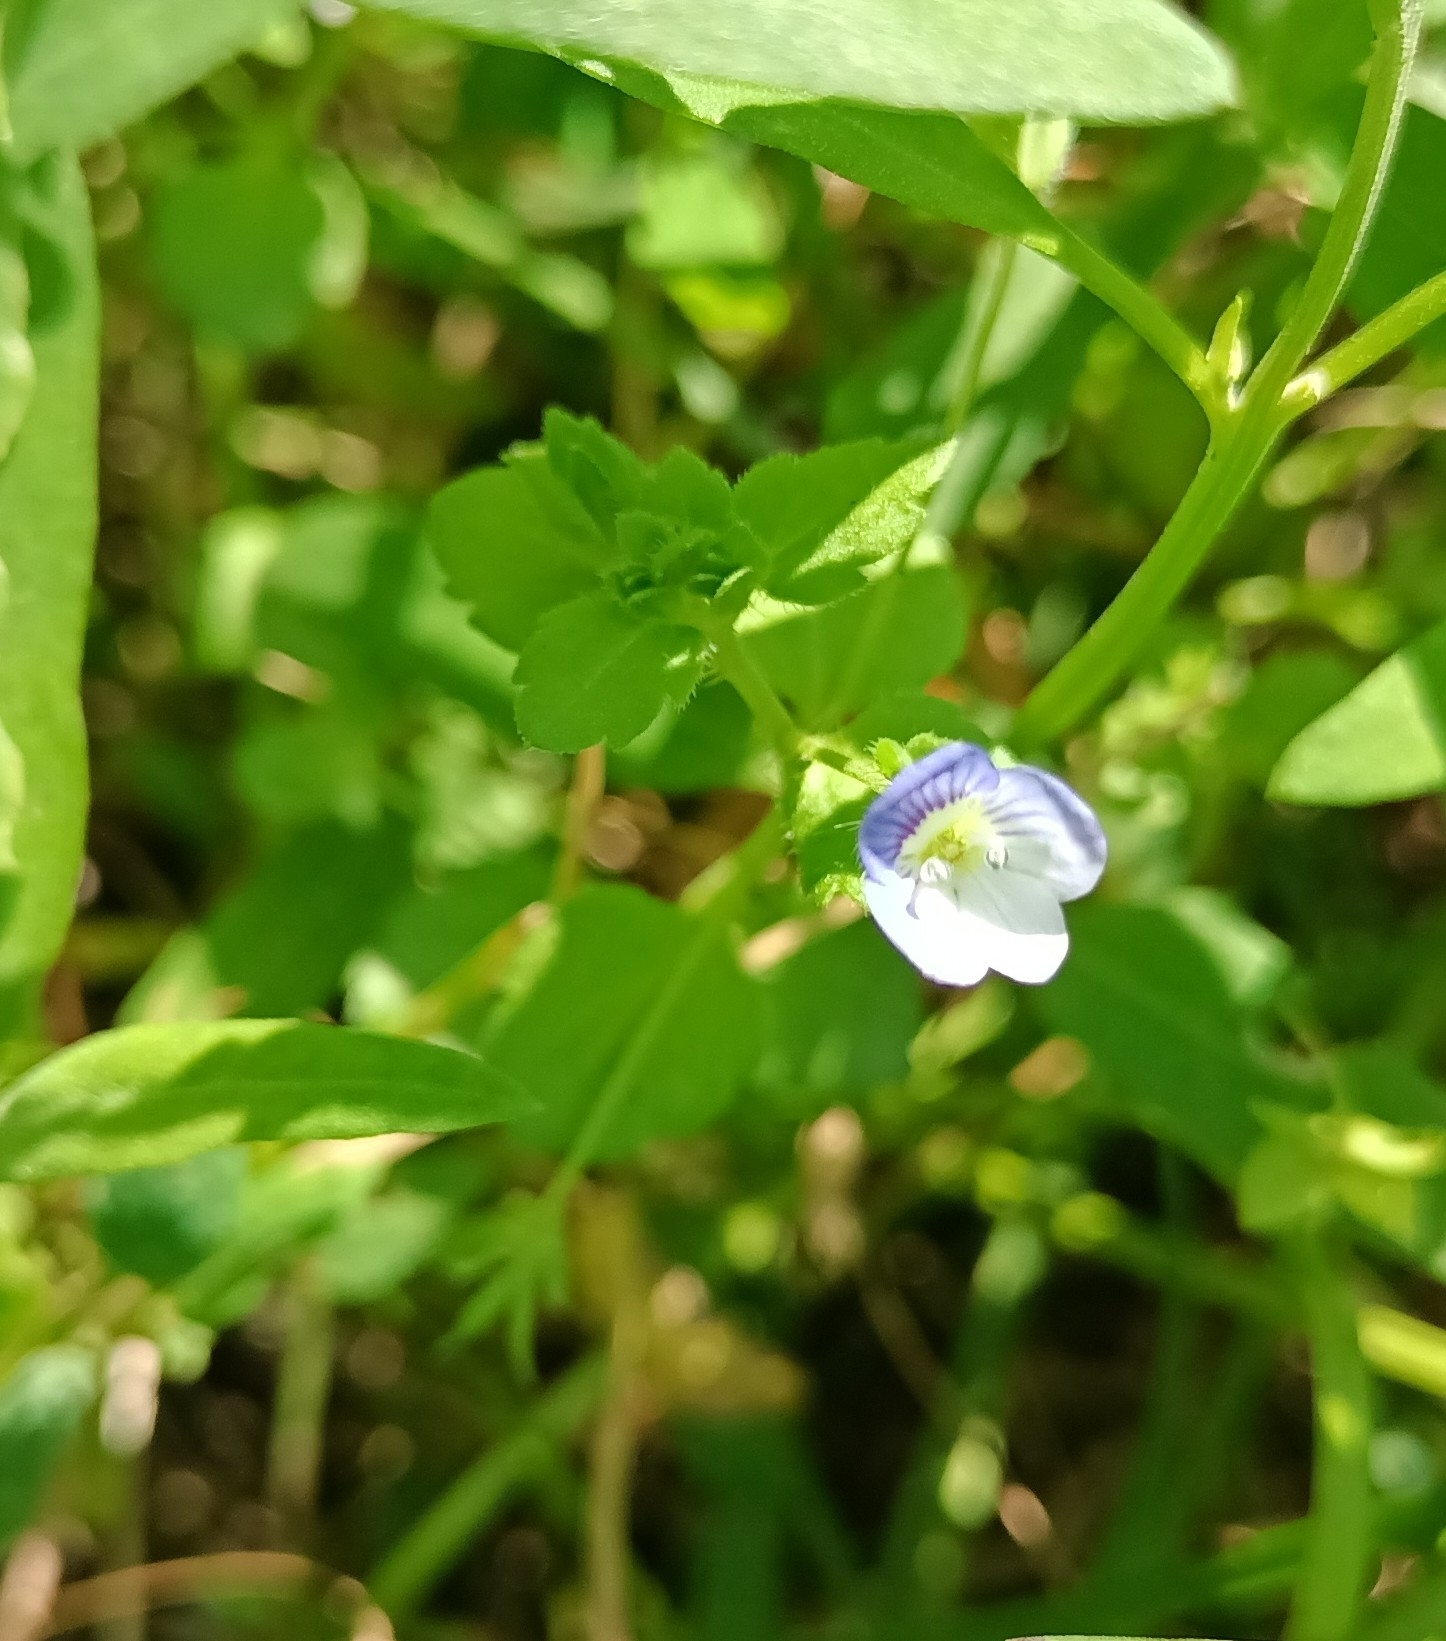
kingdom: Plantae
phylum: Tracheophyta
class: Magnoliopsida
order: Lamiales
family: Plantaginaceae
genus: Veronica
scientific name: Veronica persica
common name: Common field-speedwell
